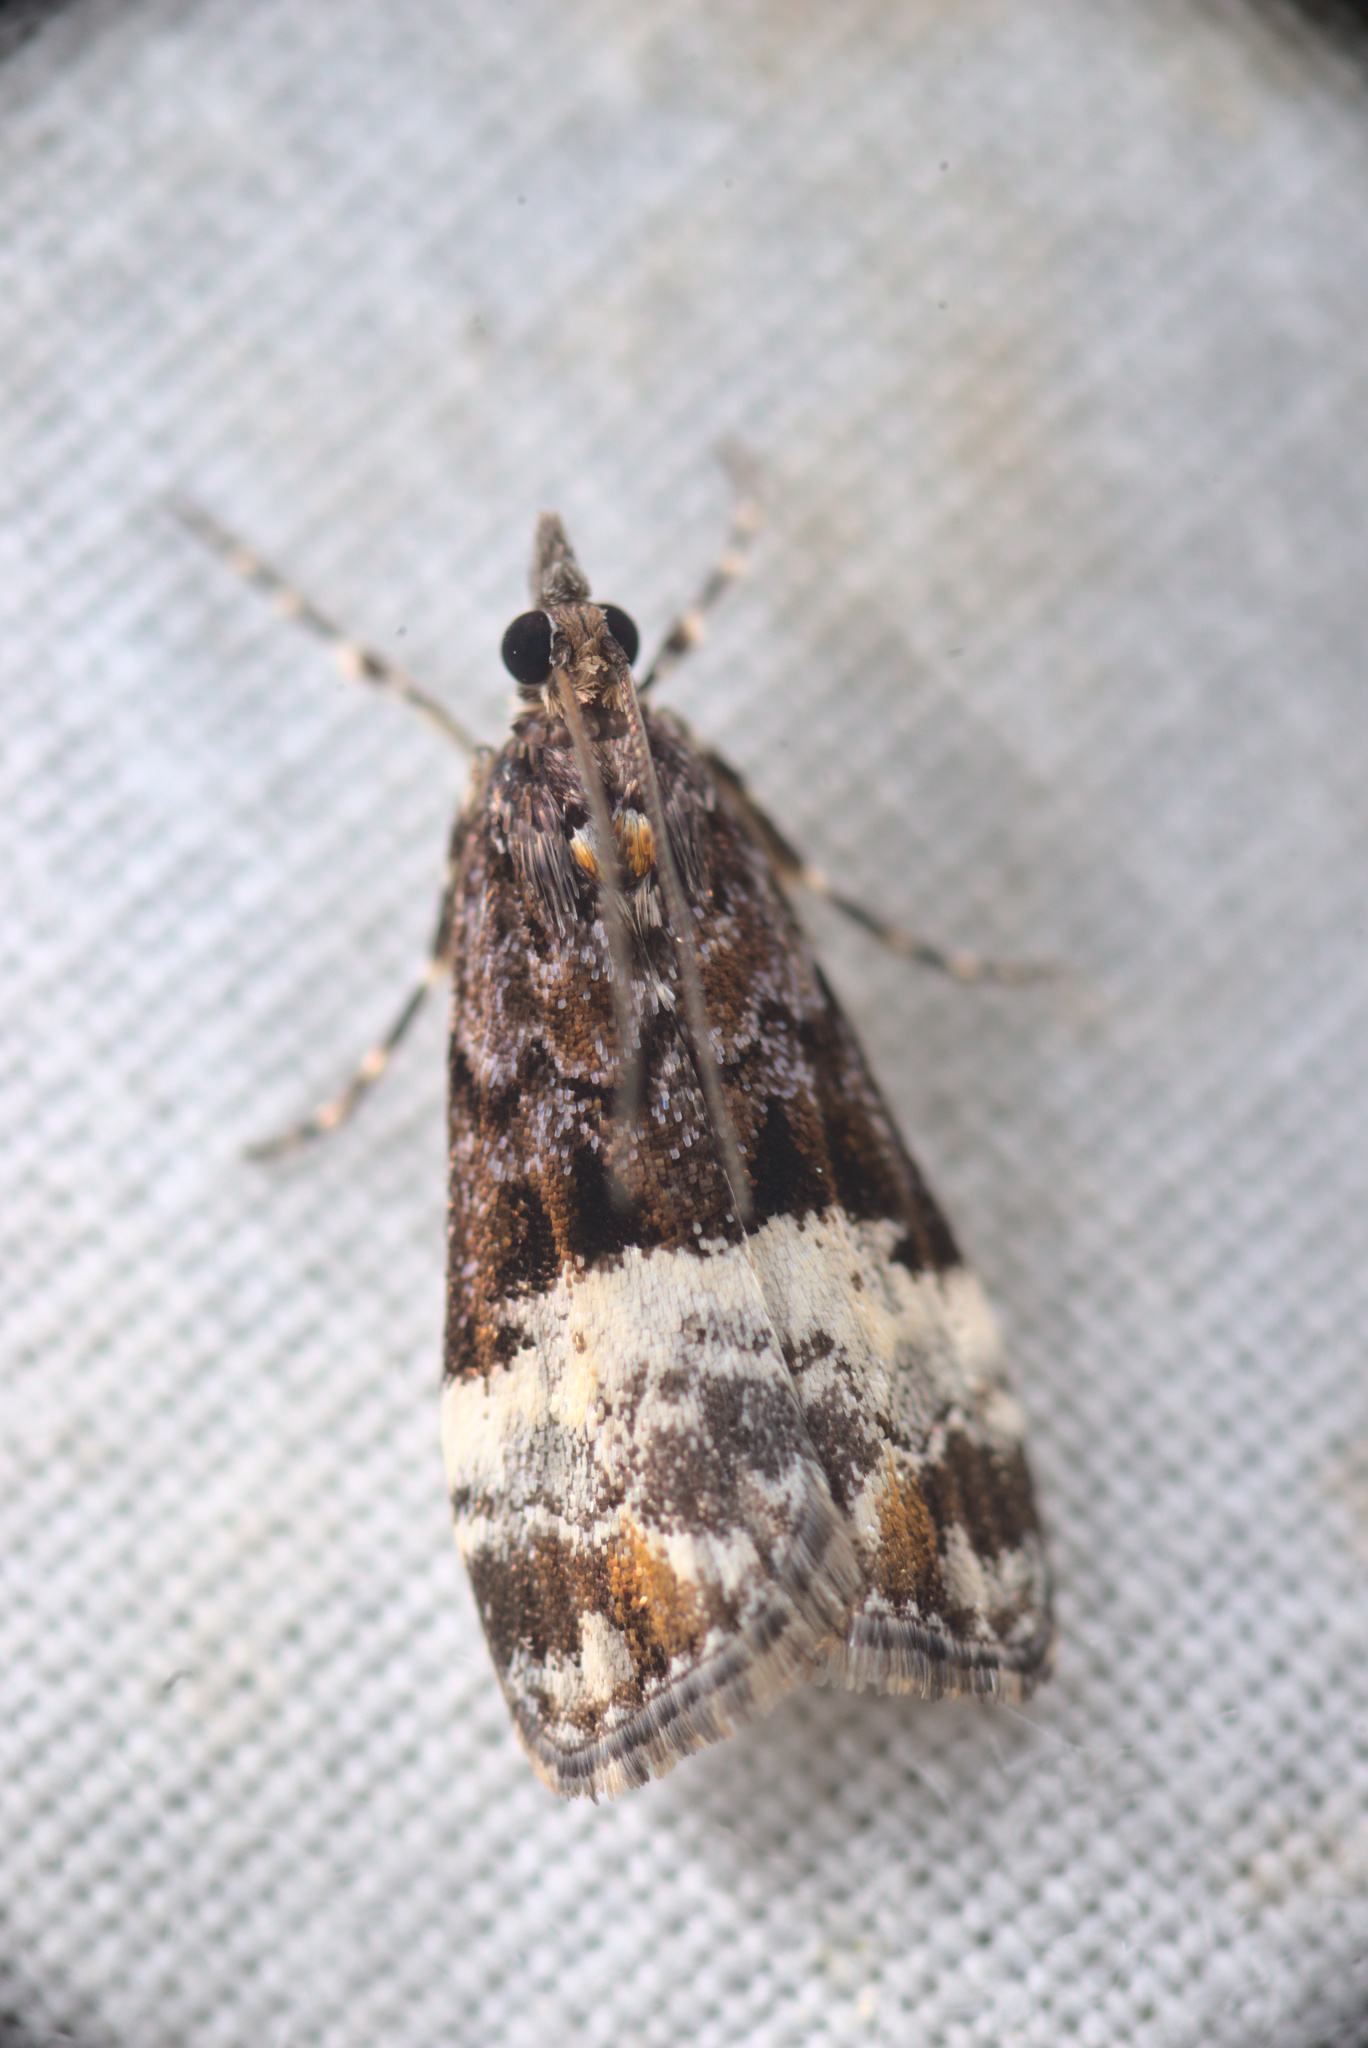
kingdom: Animalia
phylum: Arthropoda
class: Insecta
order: Lepidoptera
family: Crambidae
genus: Scoparia
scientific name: Scoparia minusculalis
